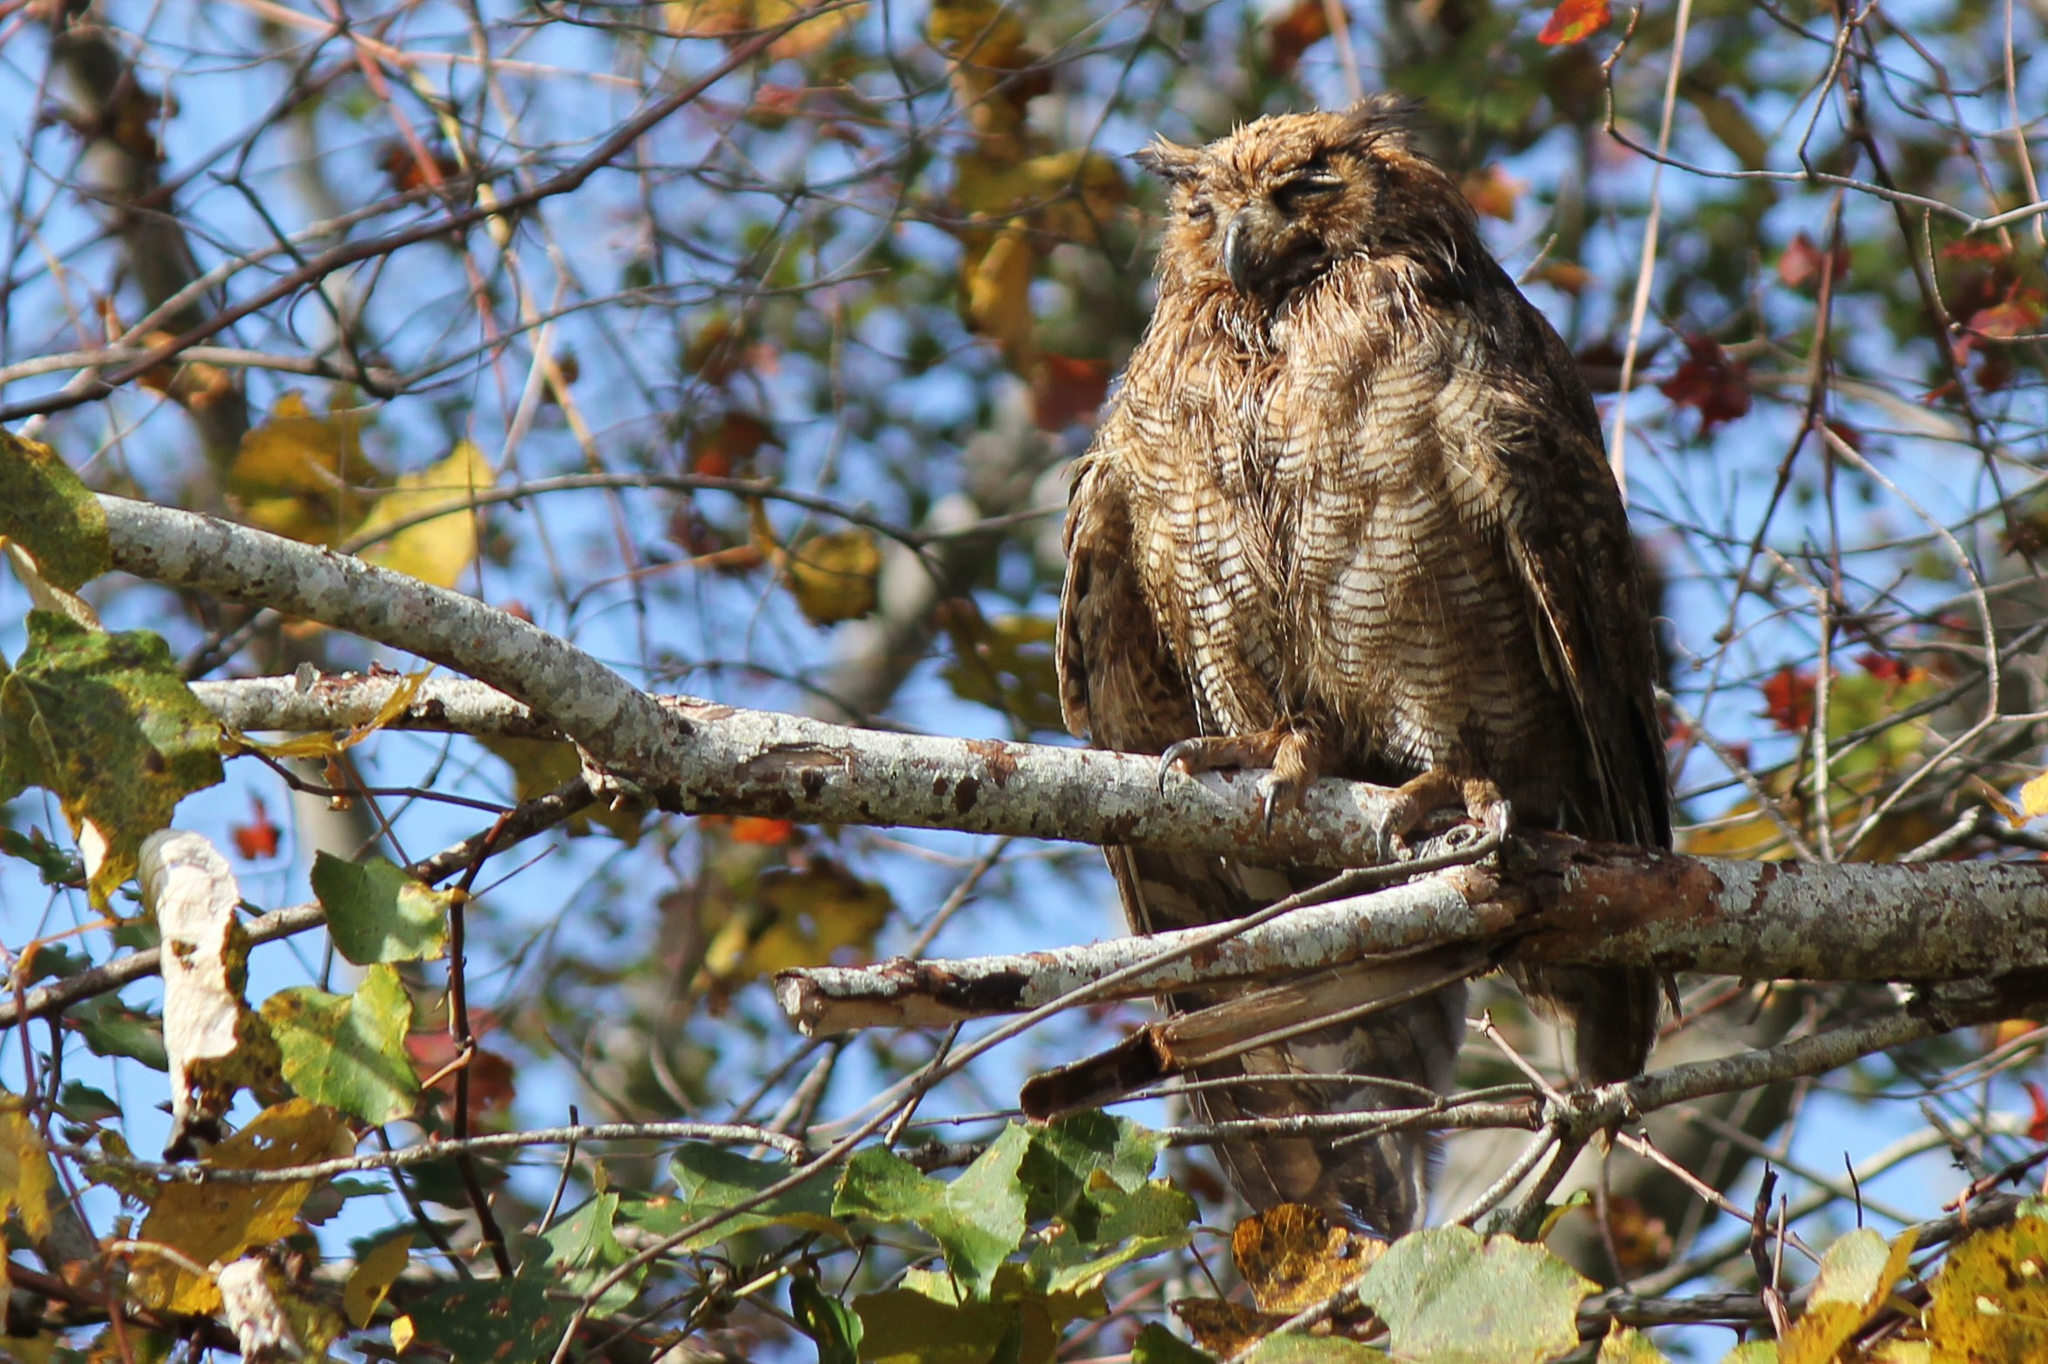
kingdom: Animalia
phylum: Chordata
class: Aves
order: Strigiformes
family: Strigidae
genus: Bubo
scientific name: Bubo virginianus
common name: Great horned owl
